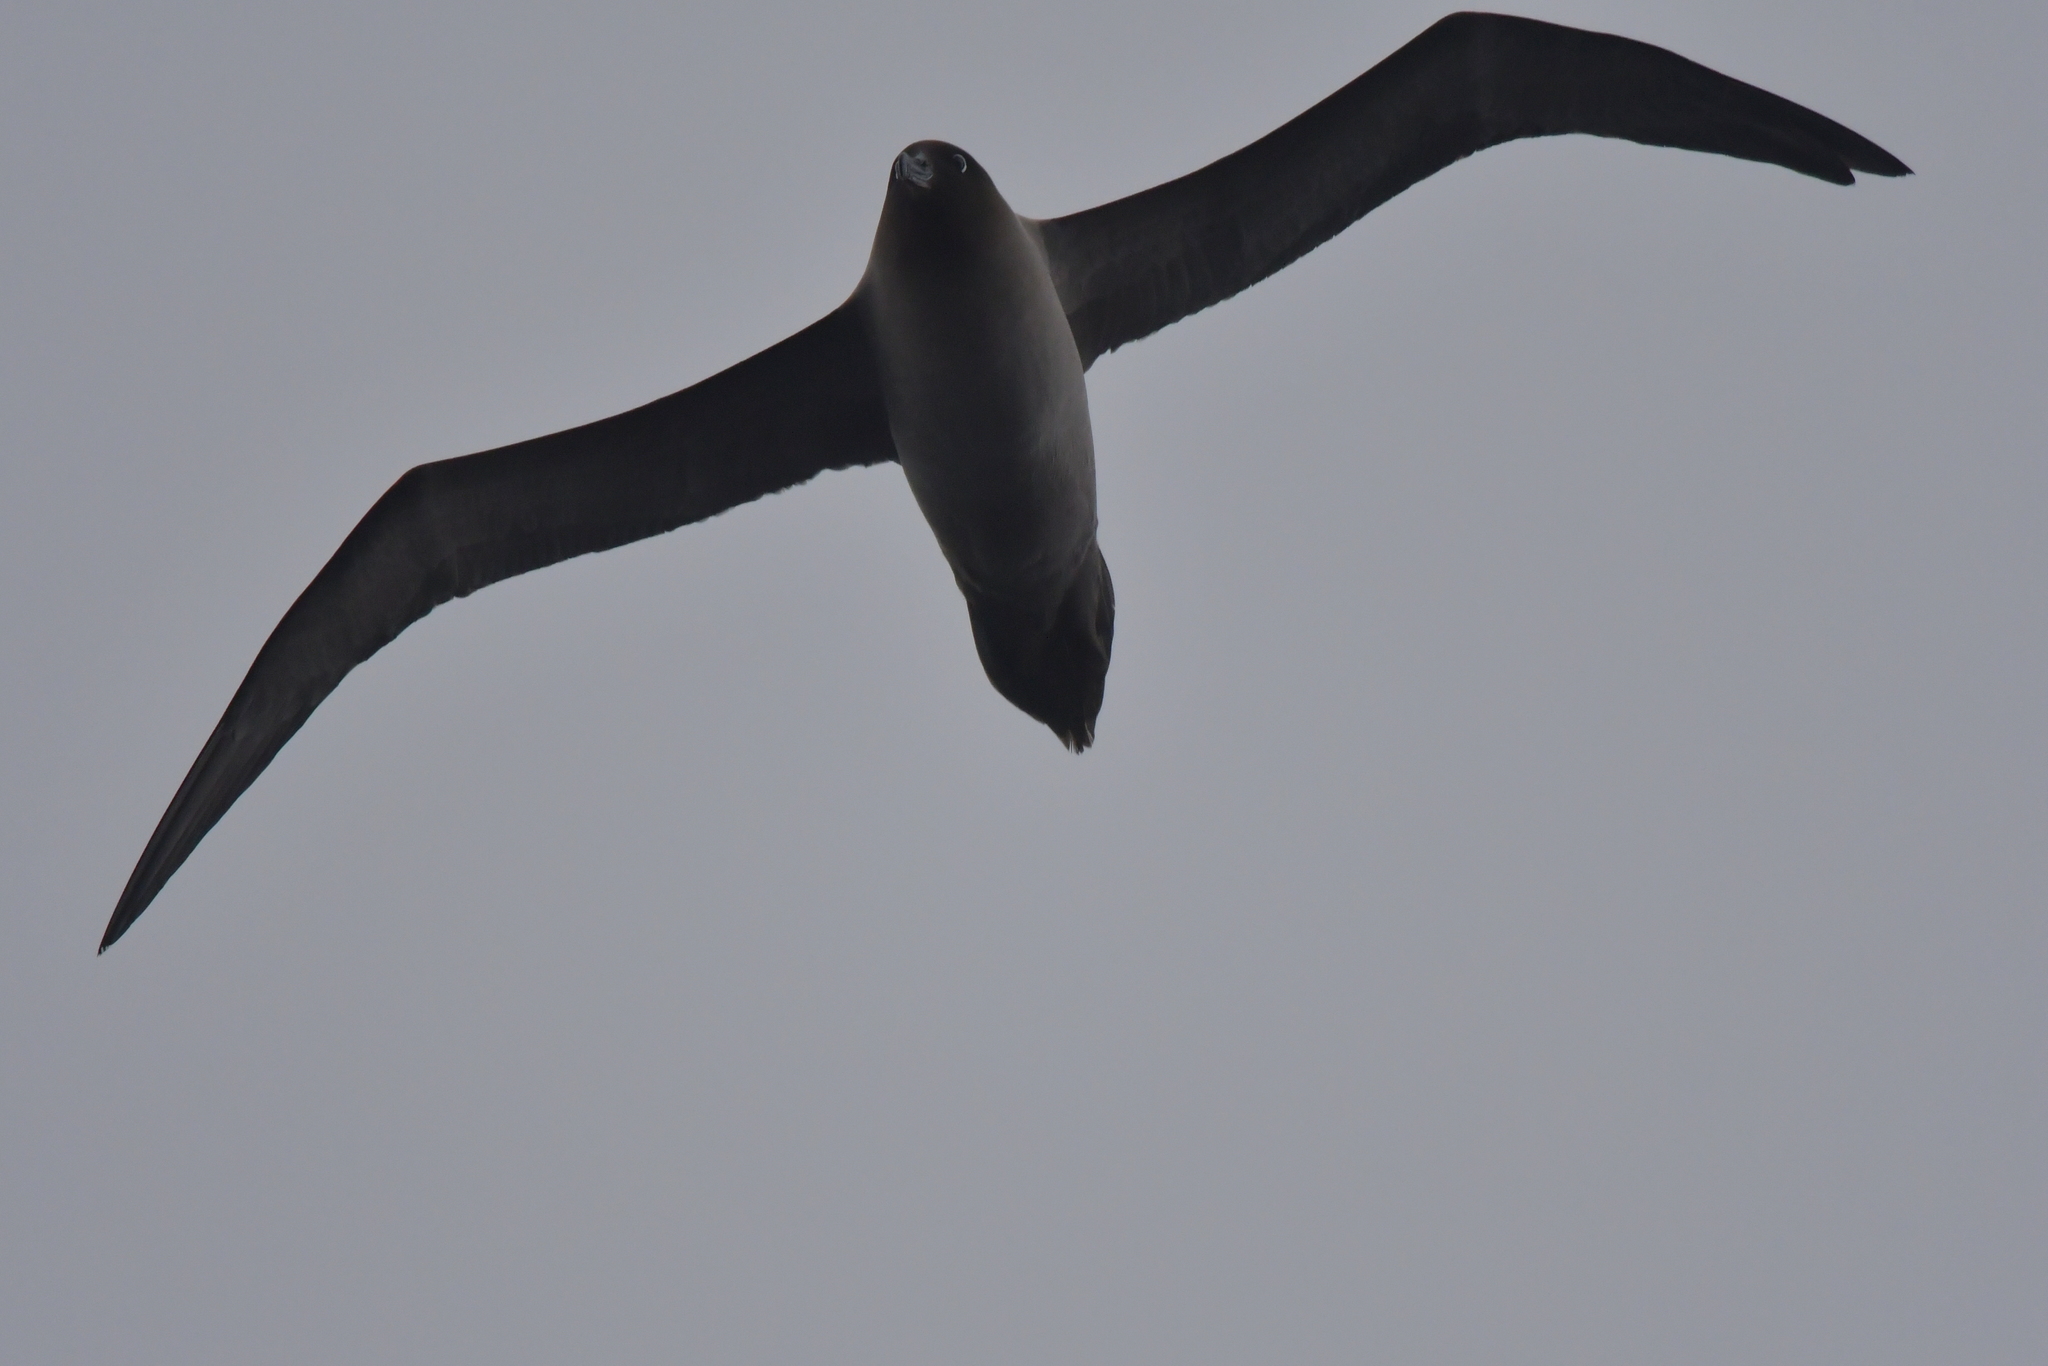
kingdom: Animalia
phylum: Chordata
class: Aves
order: Procellariiformes
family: Diomedeidae
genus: Phoebetria
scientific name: Phoebetria palpebrata
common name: Light-mantled albatross
